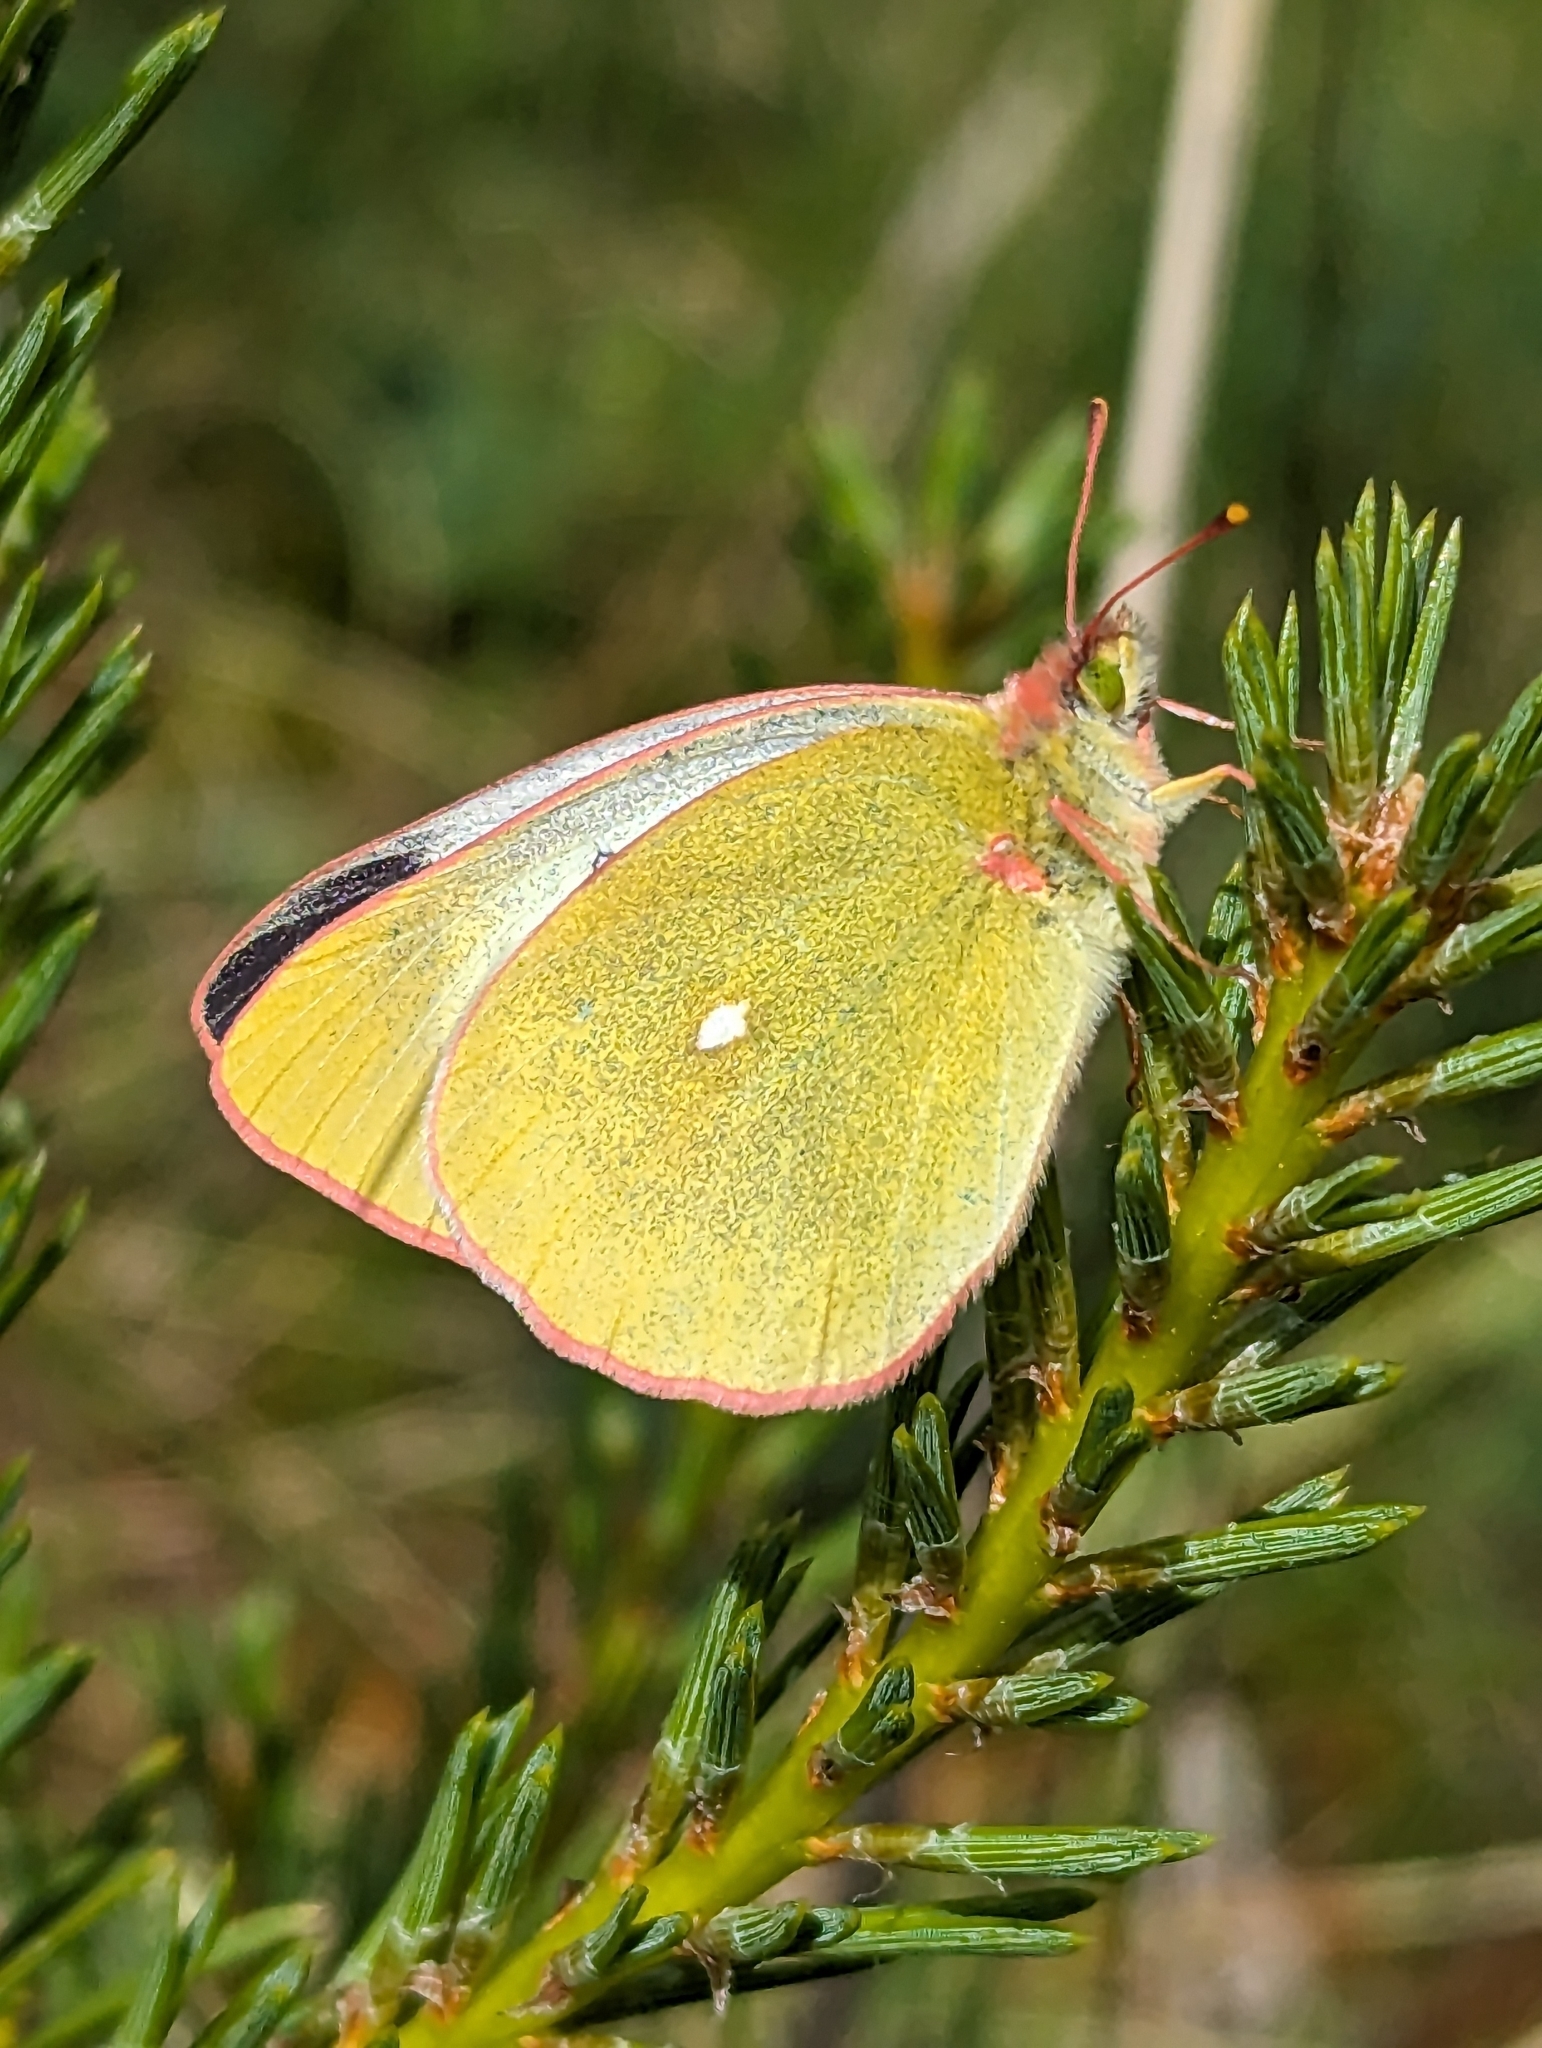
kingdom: Animalia
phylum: Arthropoda
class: Insecta
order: Lepidoptera
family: Pieridae
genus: Colias
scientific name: Colias palaeno
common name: Moorland clouded yellow
